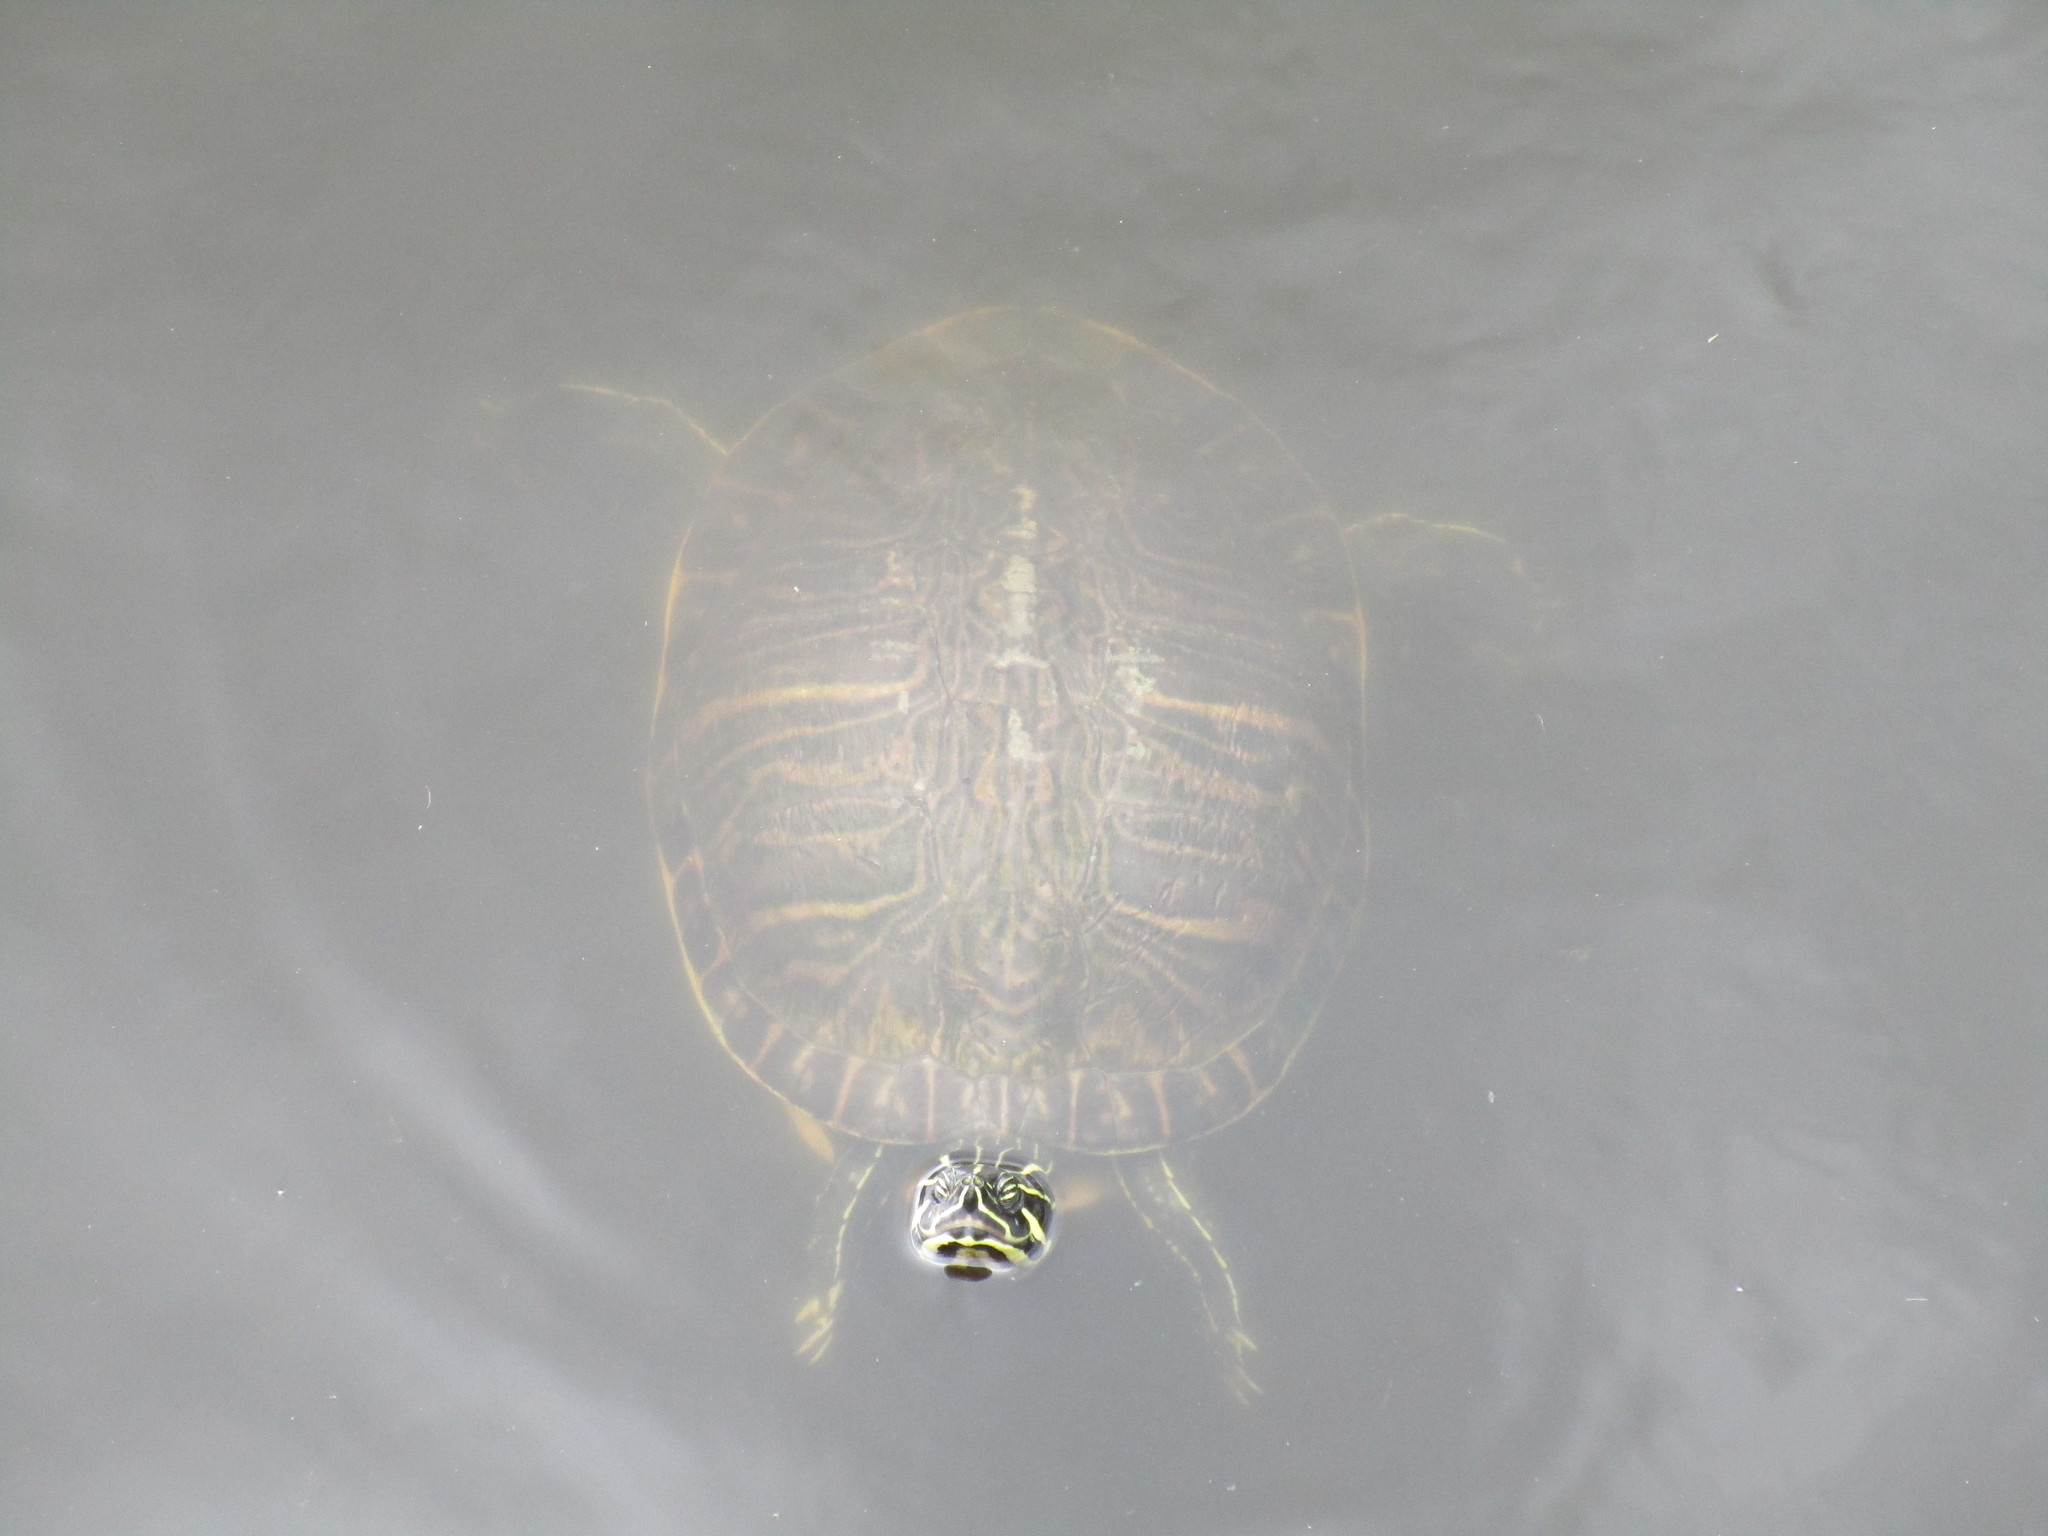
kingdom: Animalia
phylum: Chordata
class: Testudines
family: Emydidae
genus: Pseudemys
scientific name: Pseudemys peninsularis
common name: Peninsula cooter
